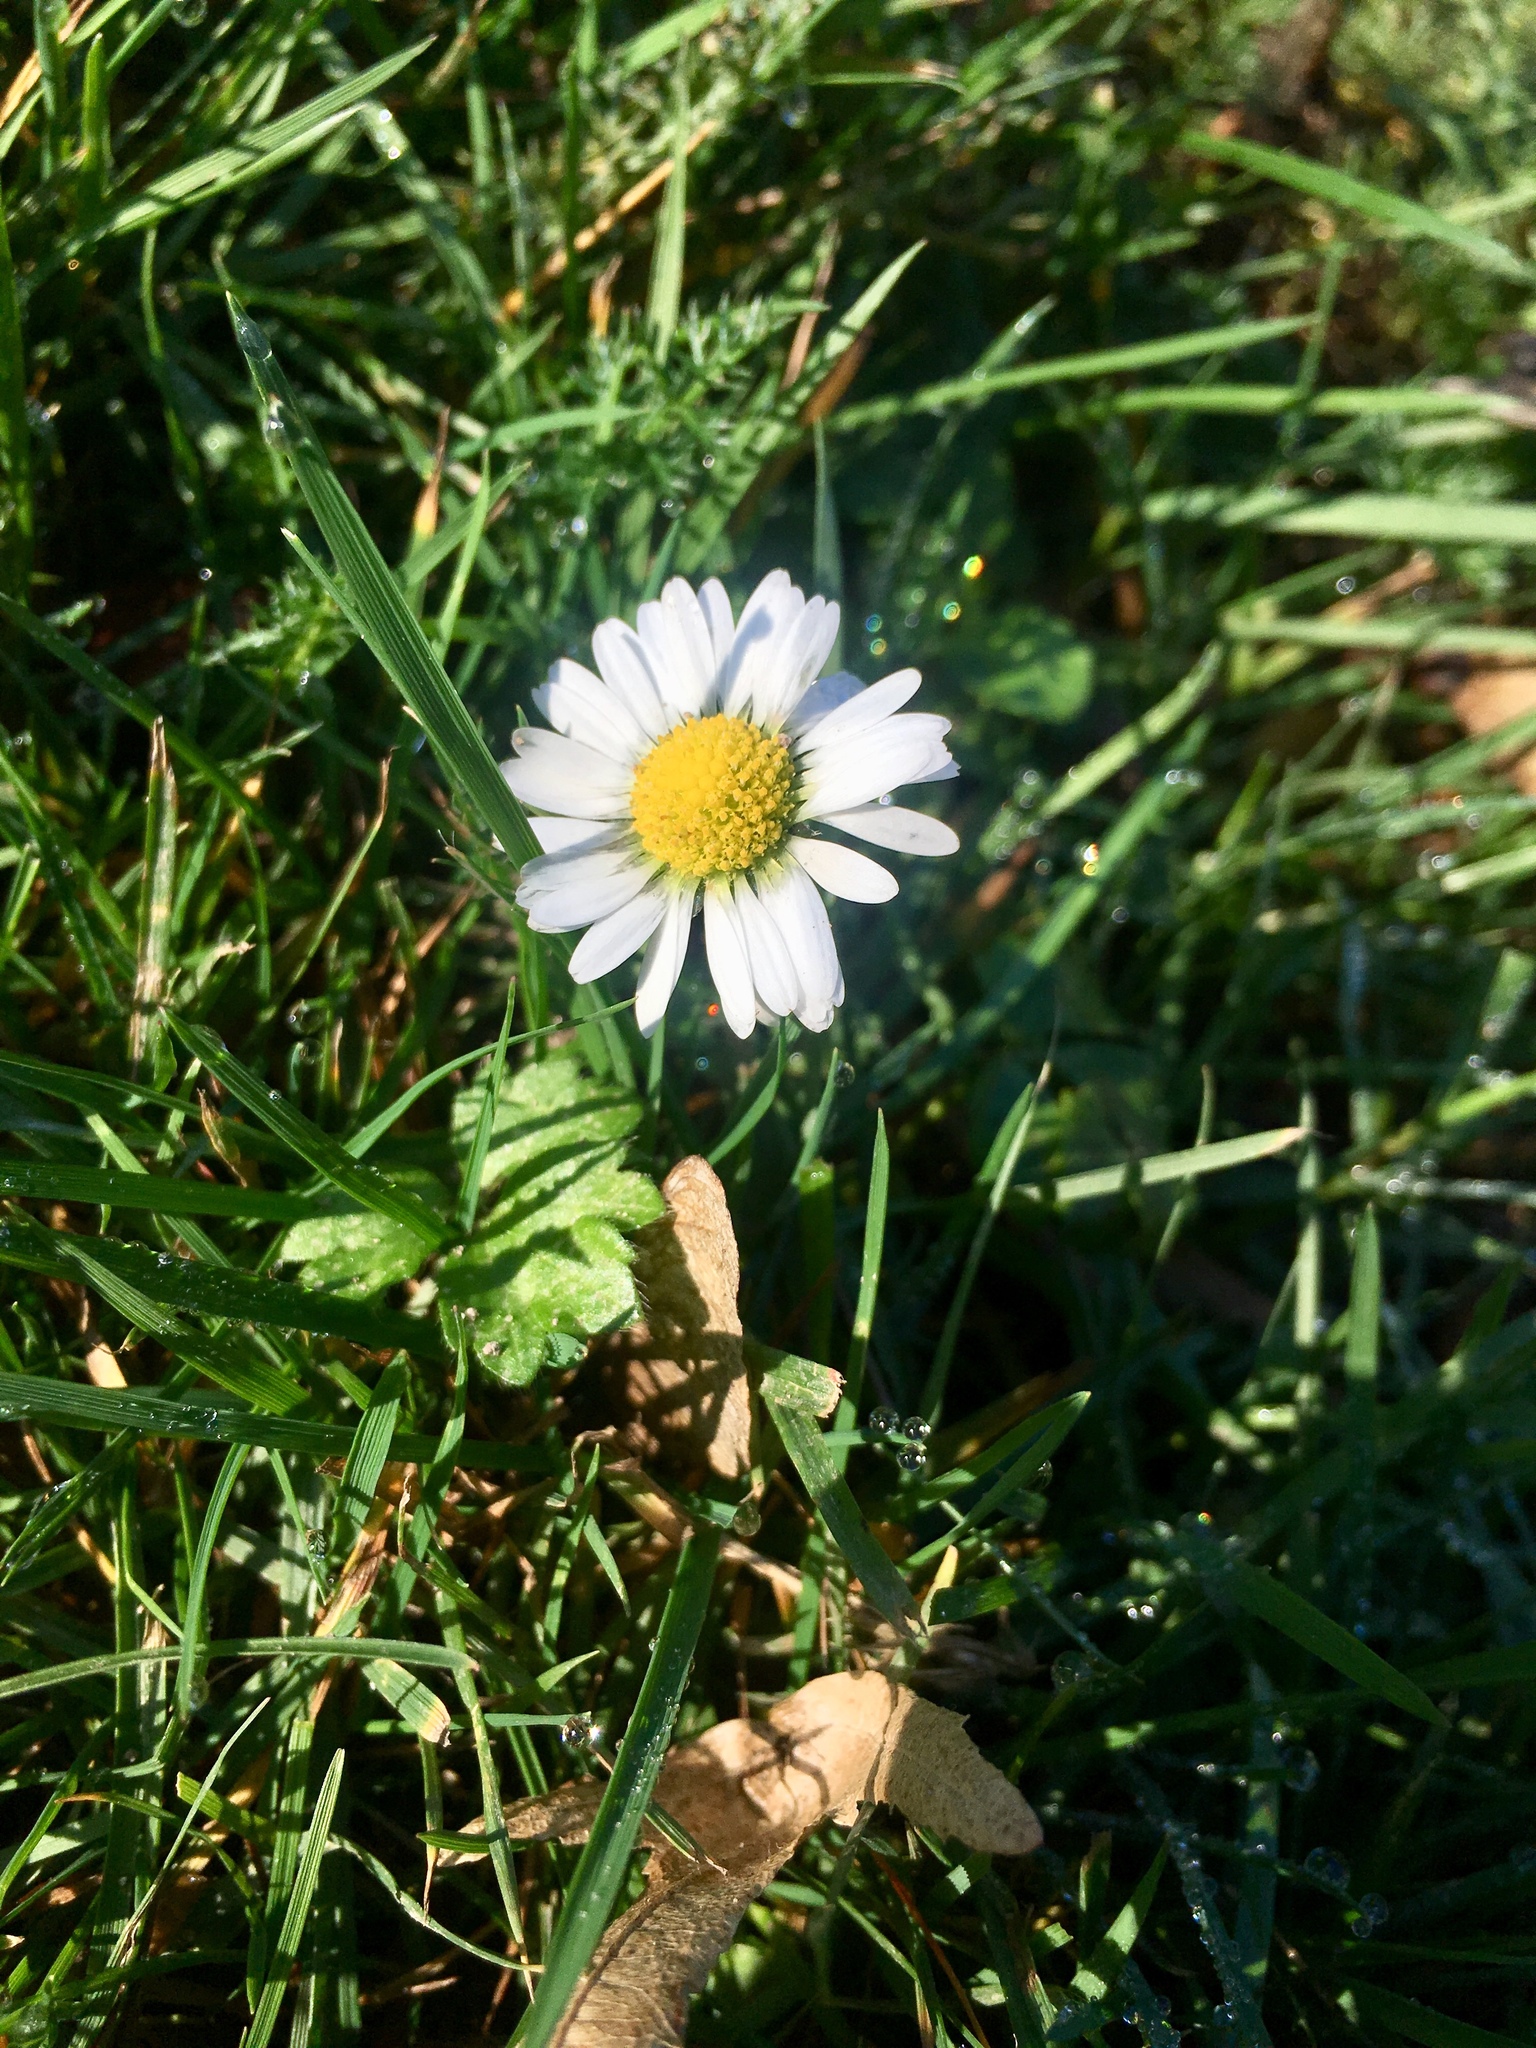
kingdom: Plantae
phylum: Tracheophyta
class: Magnoliopsida
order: Asterales
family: Asteraceae
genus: Bellis
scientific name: Bellis perennis
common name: Lawndaisy
